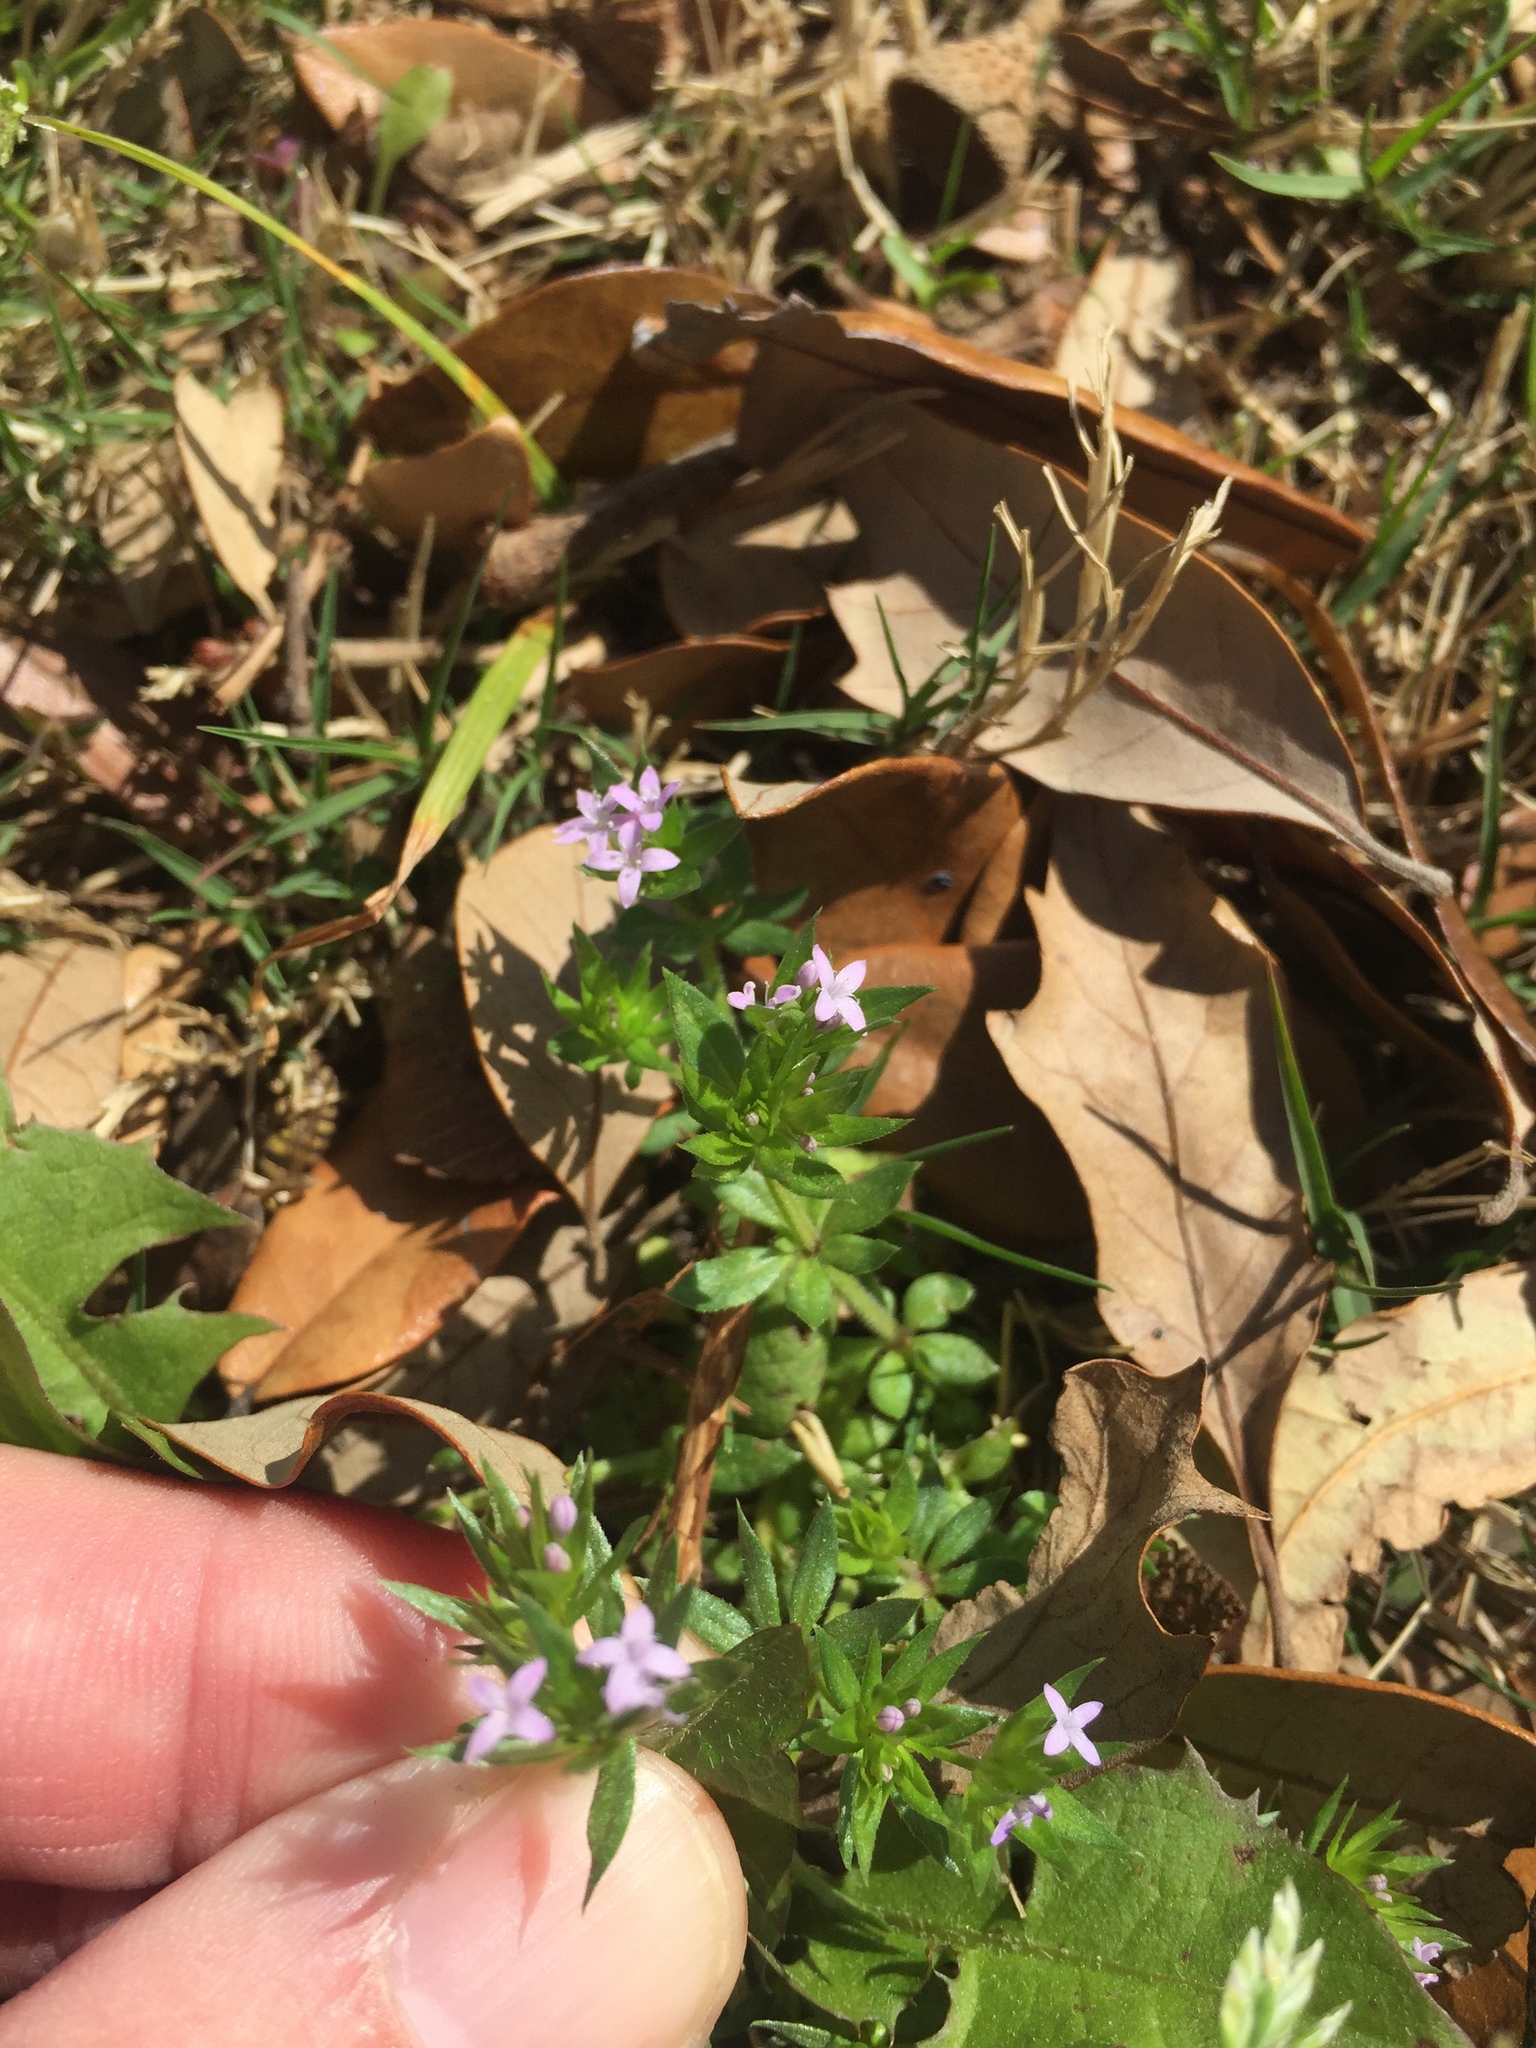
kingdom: Plantae
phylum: Tracheophyta
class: Magnoliopsida
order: Gentianales
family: Rubiaceae
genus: Sherardia
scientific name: Sherardia arvensis
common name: Field madder
